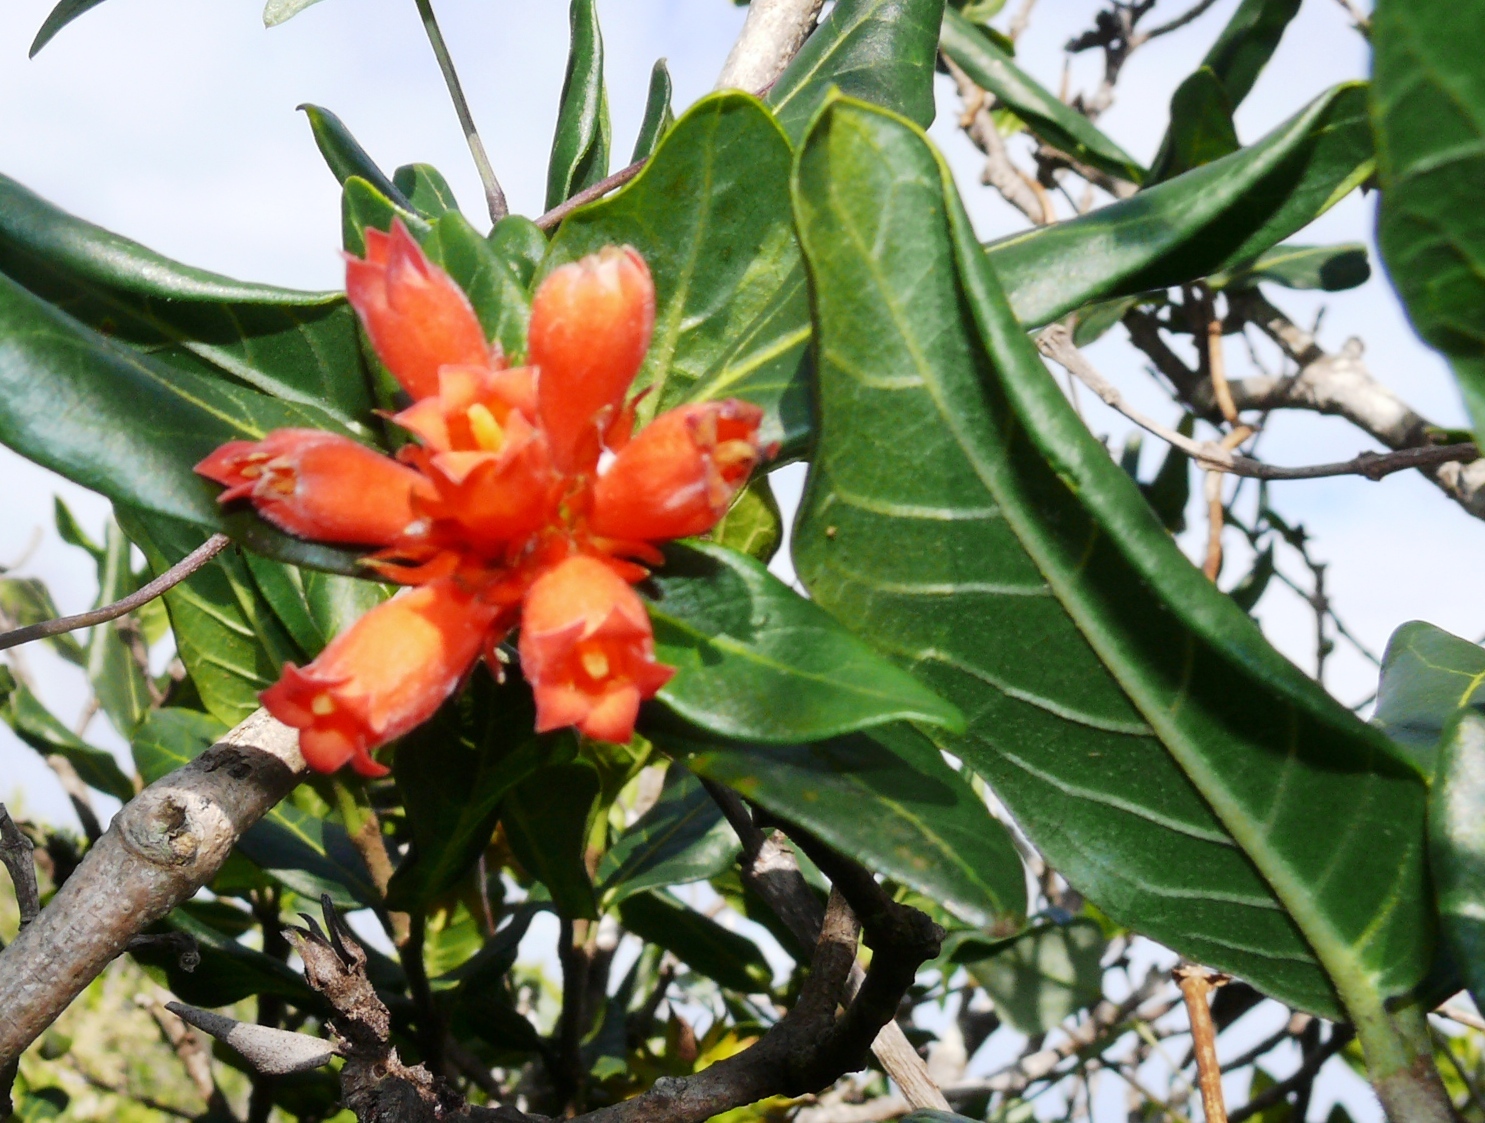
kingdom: Plantae
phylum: Tracheophyta
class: Magnoliopsida
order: Gentianales
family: Rubiaceae
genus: Burchellia
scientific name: Burchellia bubalina
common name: Wild pomegranate
